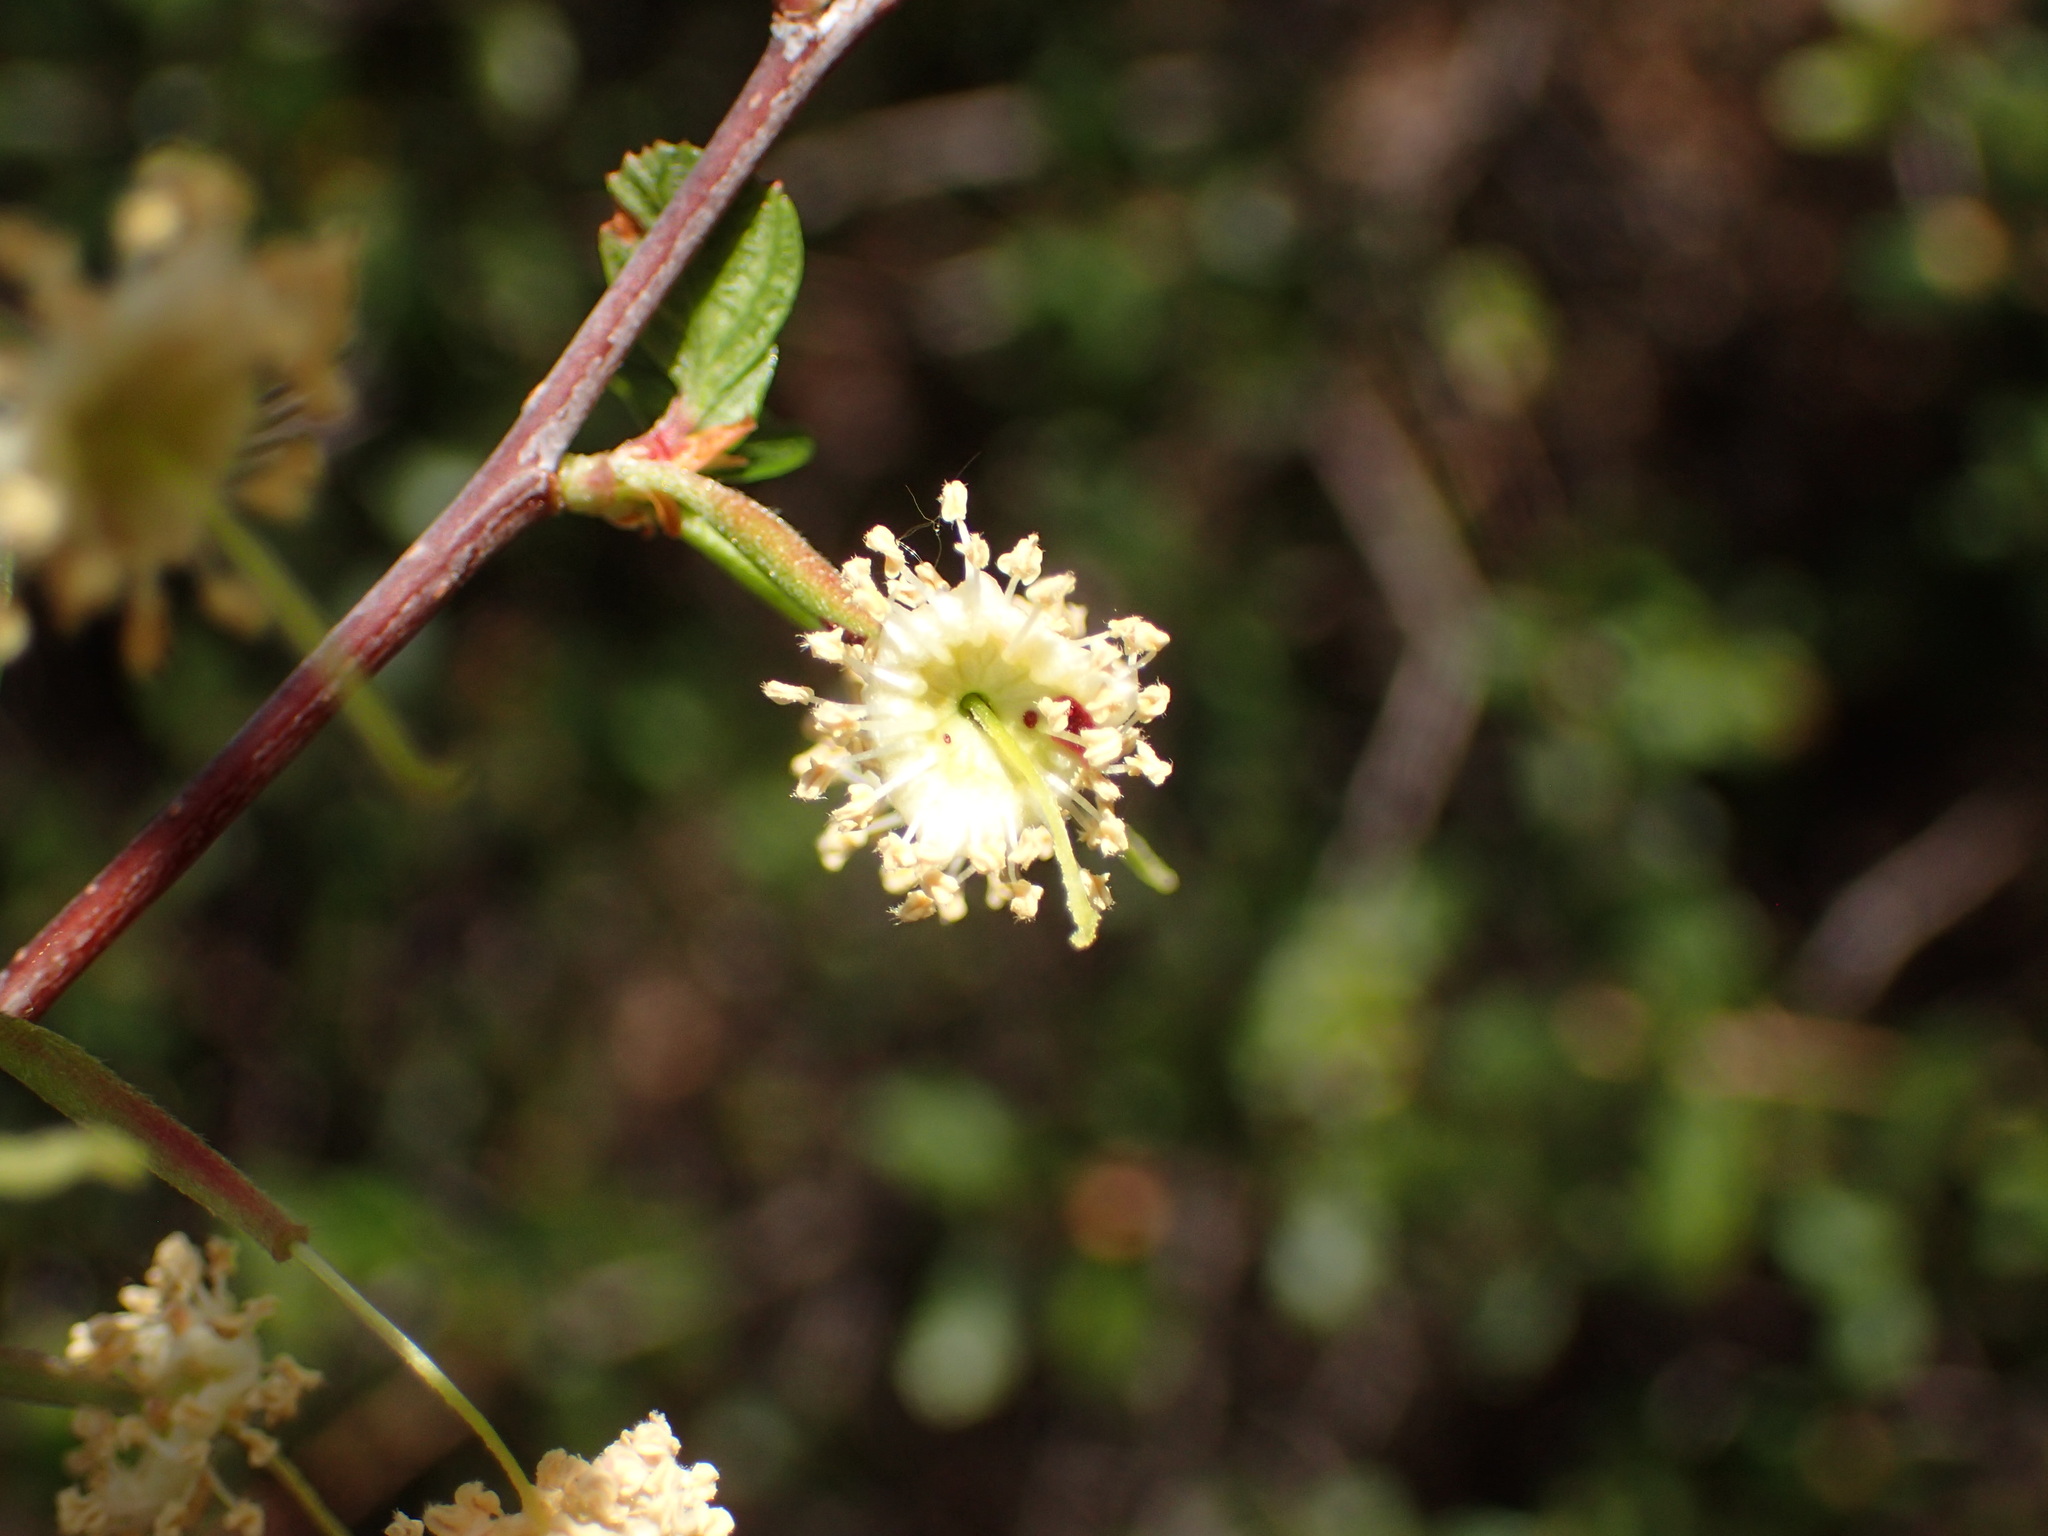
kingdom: Plantae
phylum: Tracheophyta
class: Magnoliopsida
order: Rosales
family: Rosaceae
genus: Cercocarpus
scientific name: Cercocarpus betuloides
